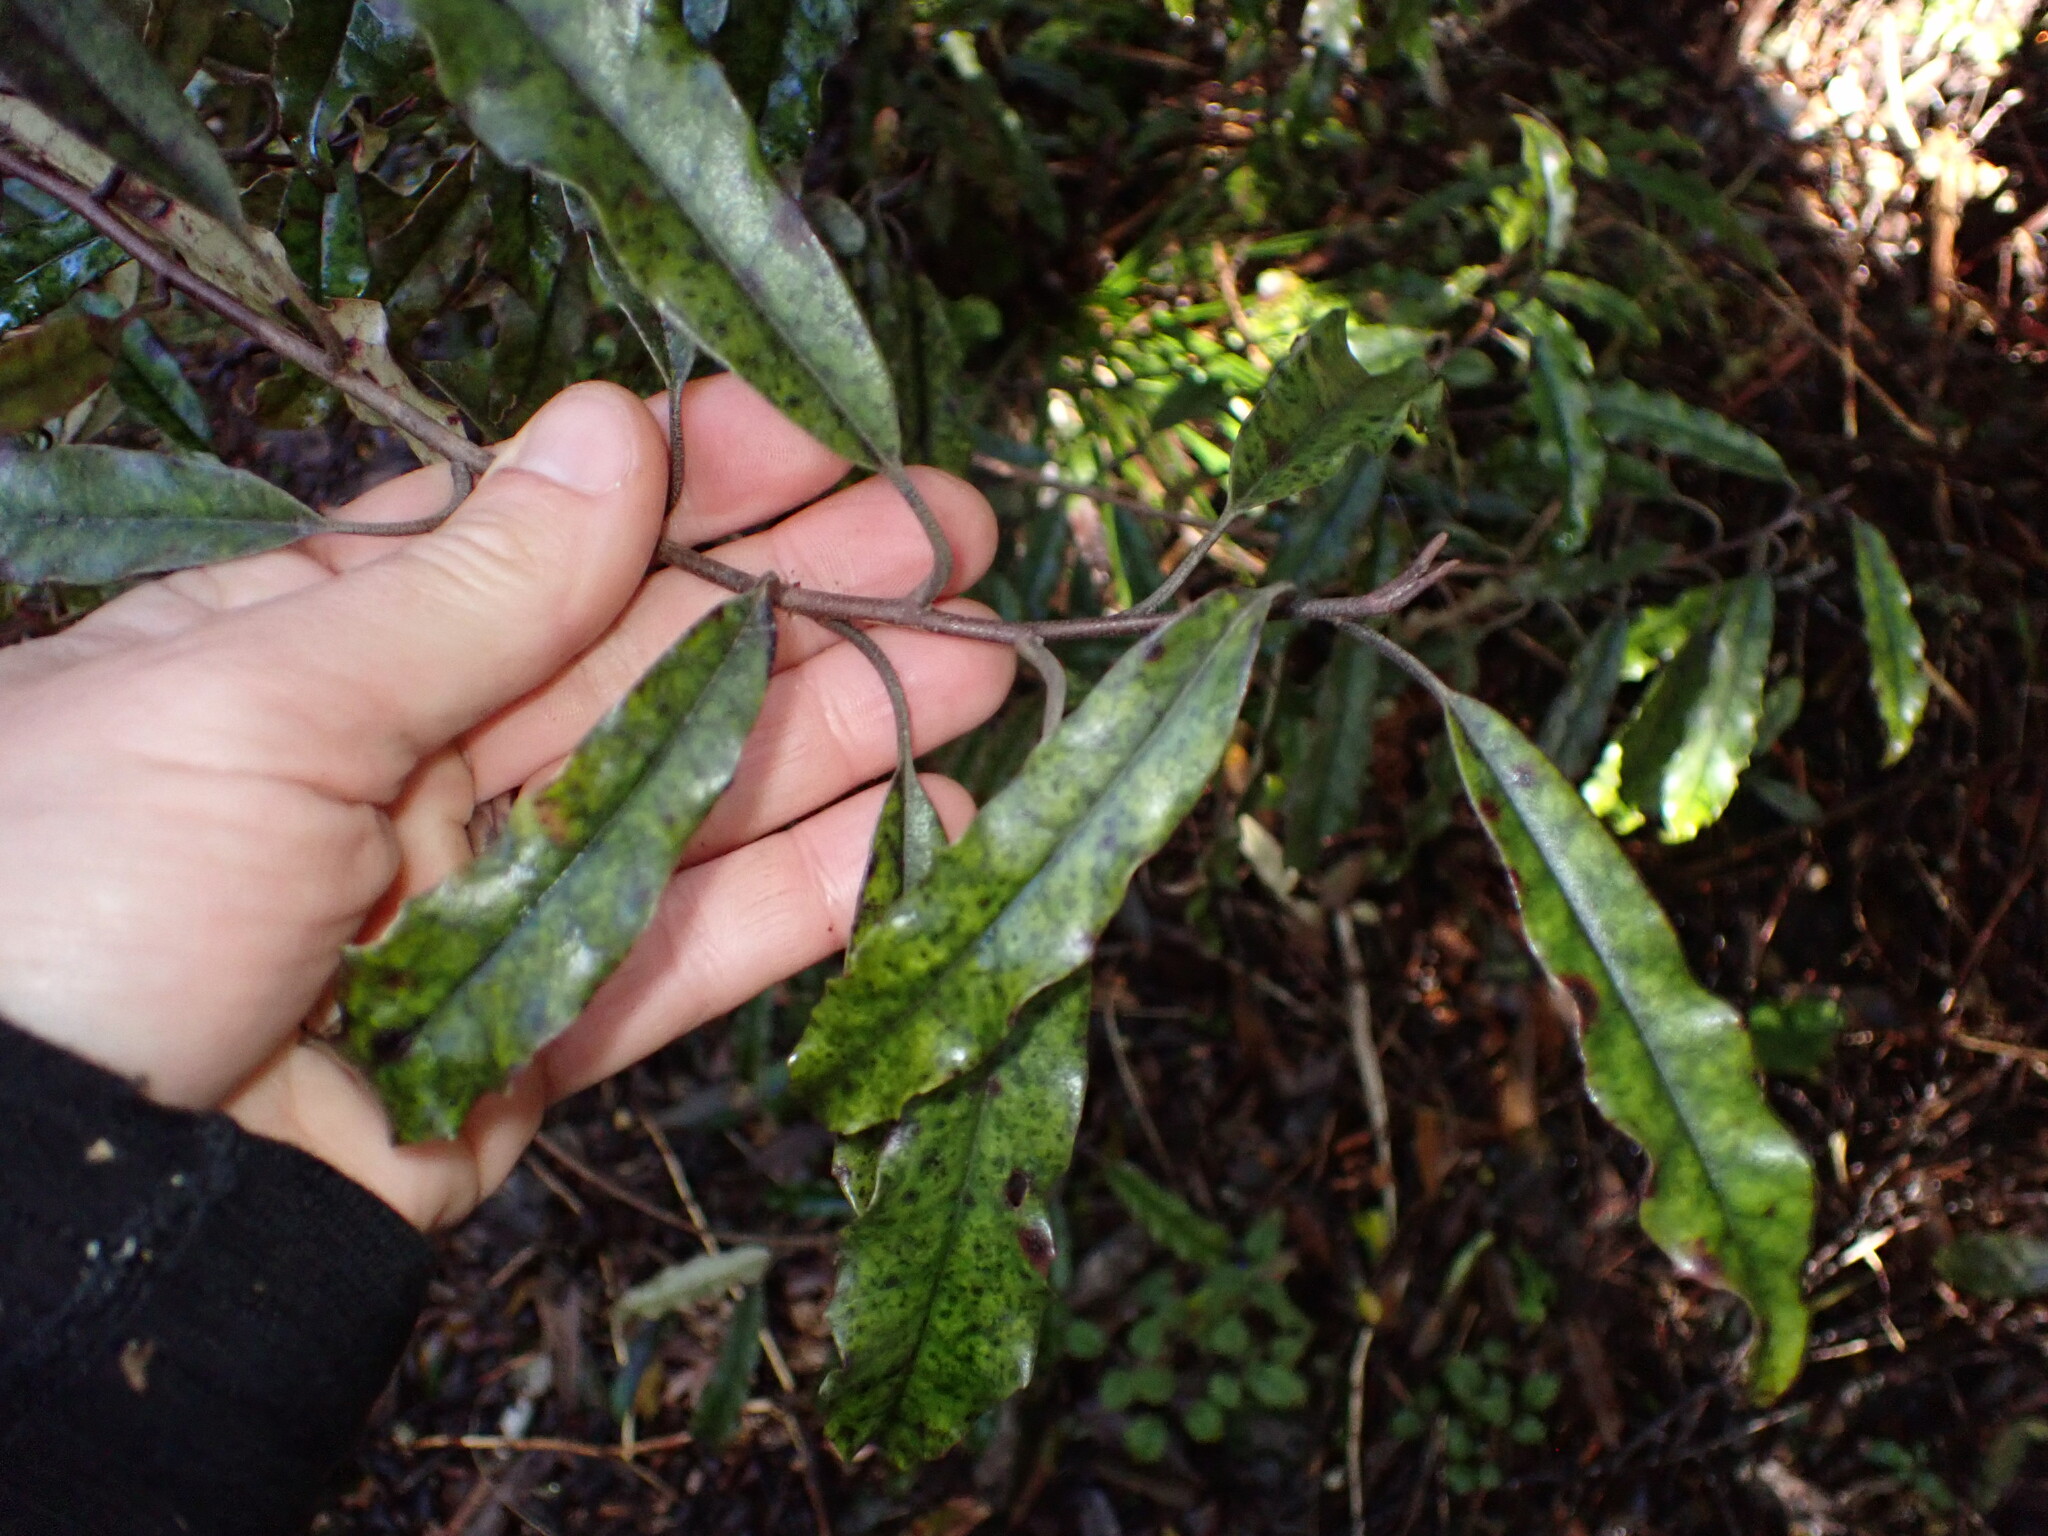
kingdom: Plantae
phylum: Tracheophyta
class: Magnoliopsida
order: Paracryphiales
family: Paracryphiaceae
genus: Quintinia
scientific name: Quintinia serrata
